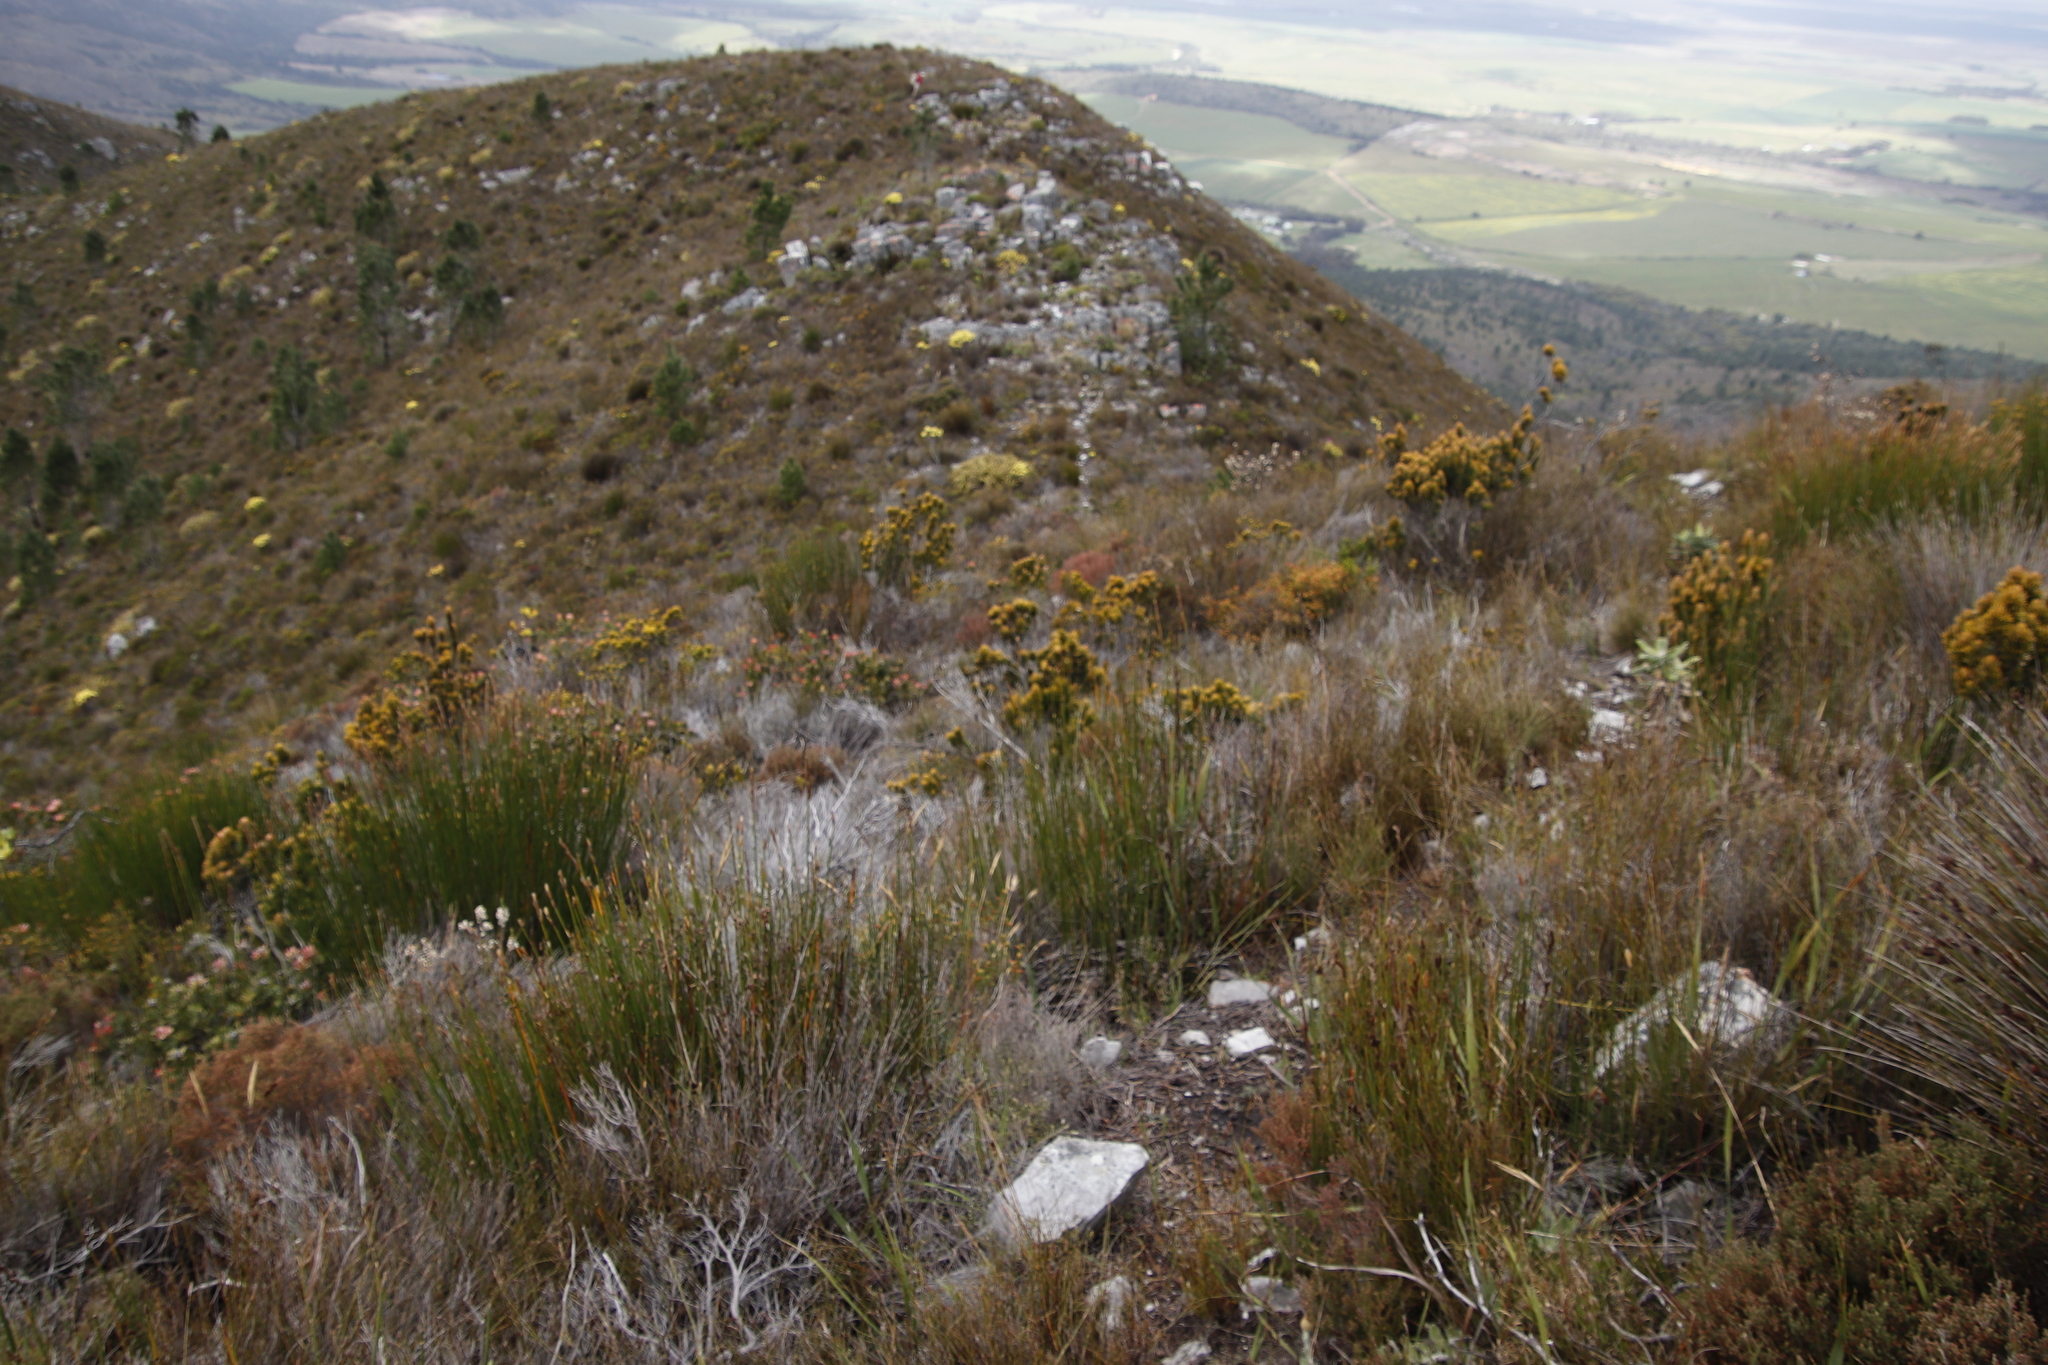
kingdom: Plantae
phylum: Tracheophyta
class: Magnoliopsida
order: Lamiales
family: Stilbaceae
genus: Retzia
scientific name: Retzia capensis
